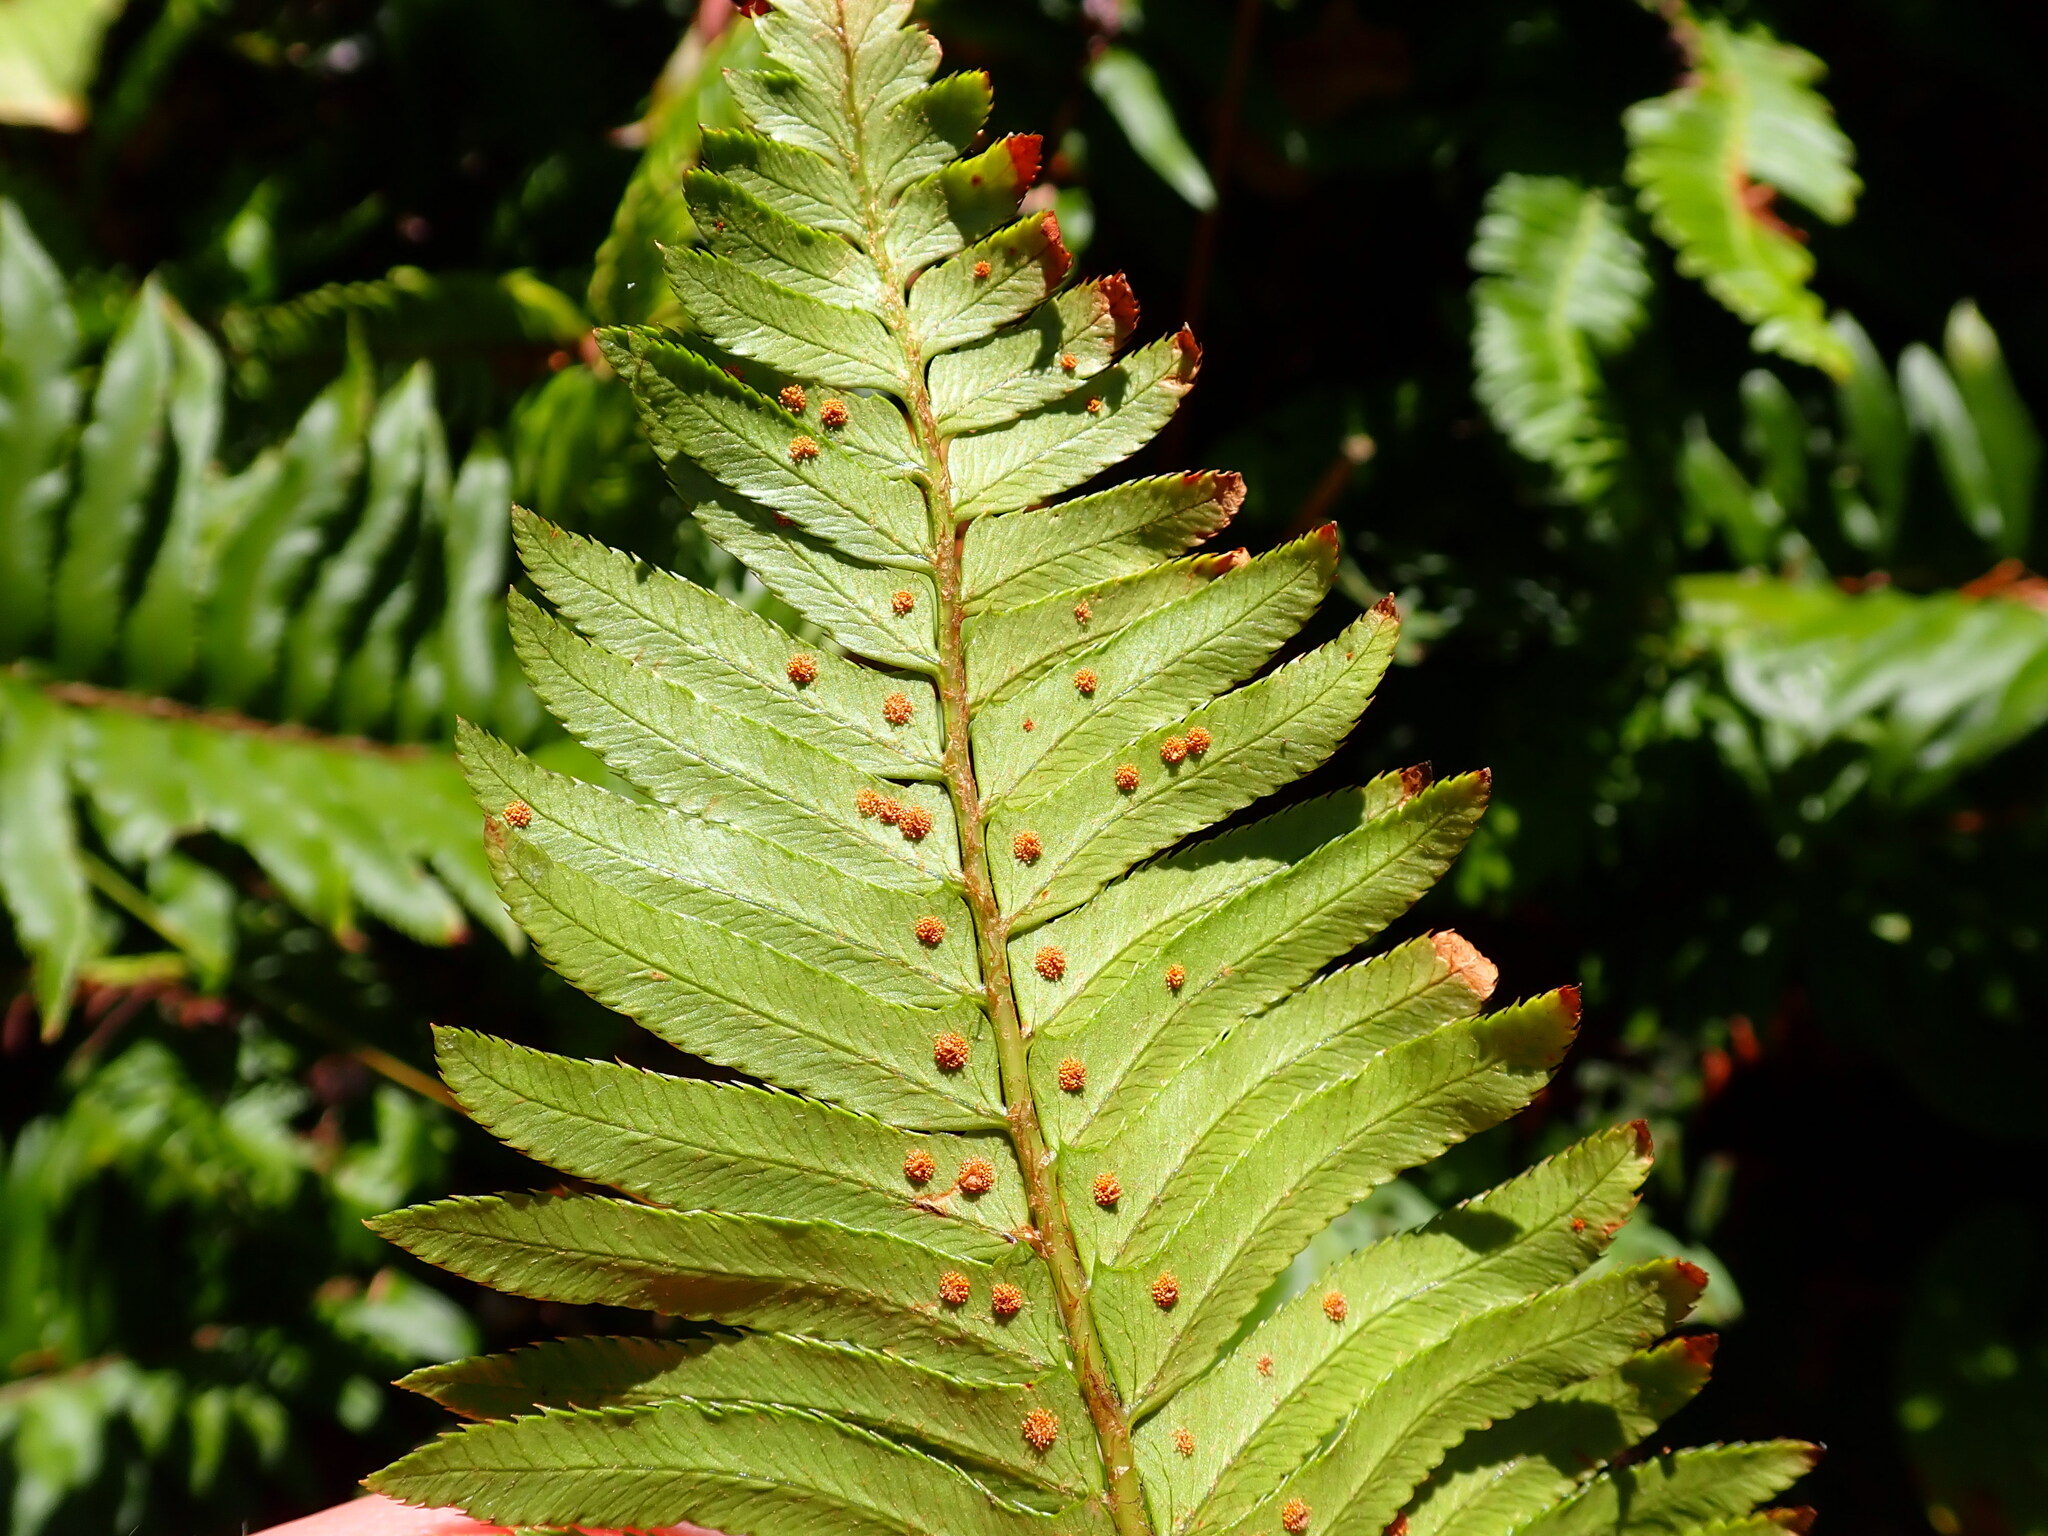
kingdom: Plantae
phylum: Tracheophyta
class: Polypodiopsida
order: Polypodiales
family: Dryopteridaceae
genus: Polystichum
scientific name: Polystichum munitum
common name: Western sword-fern
